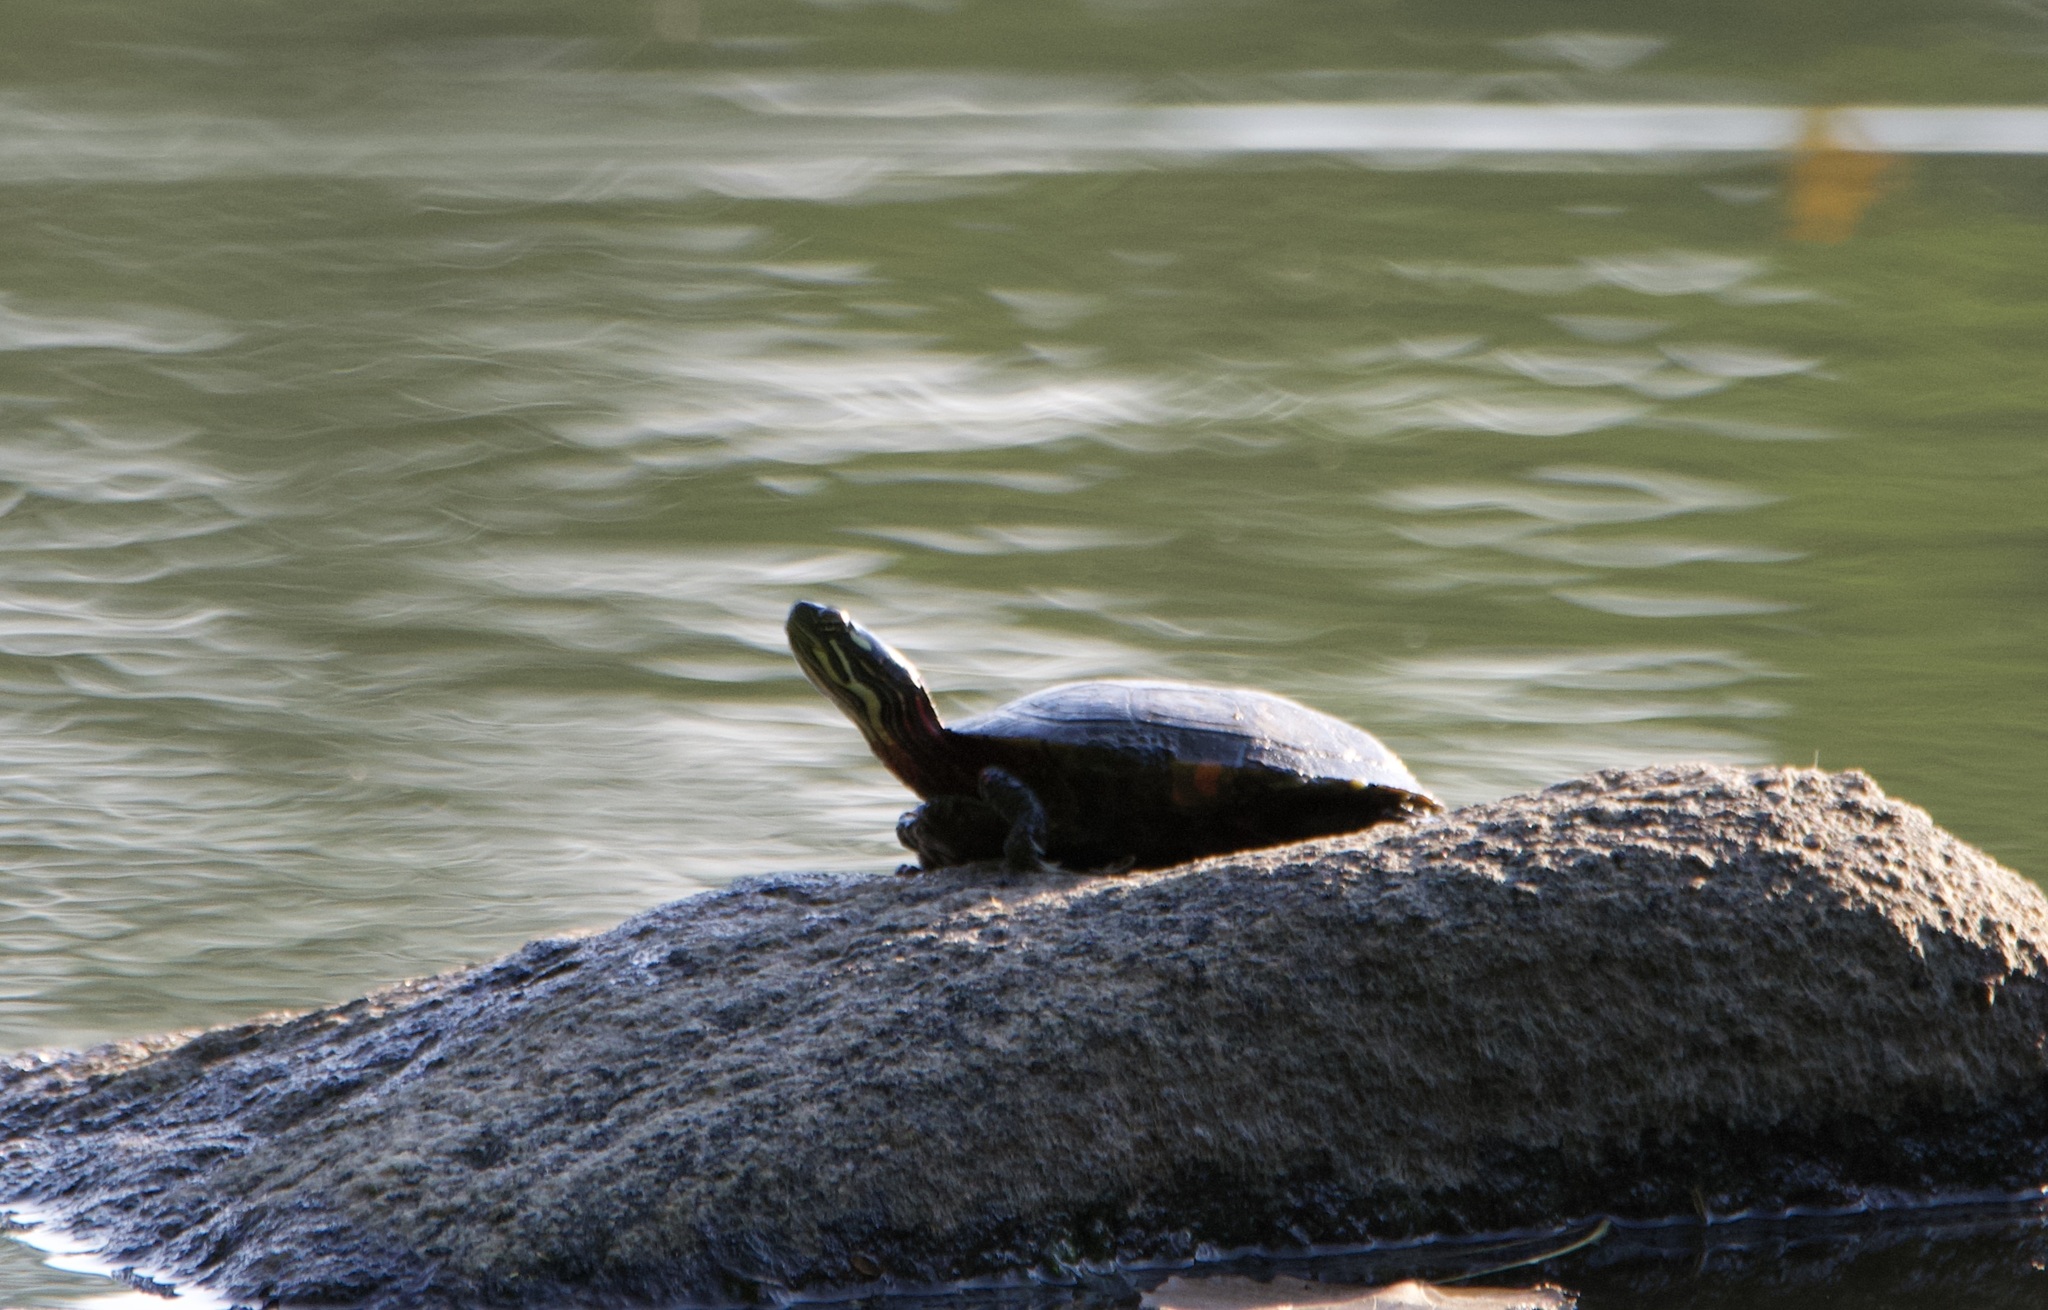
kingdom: Animalia
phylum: Chordata
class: Testudines
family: Emydidae
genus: Chrysemys
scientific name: Chrysemys picta
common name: Painted turtle
